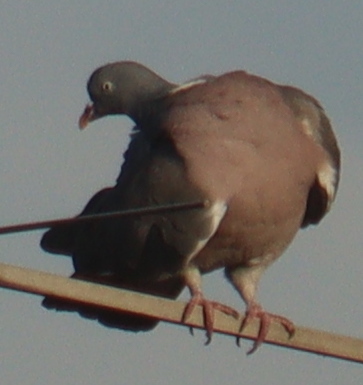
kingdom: Animalia
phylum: Chordata
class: Aves
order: Columbiformes
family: Columbidae
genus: Columba
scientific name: Columba palumbus
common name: Common wood pigeon
